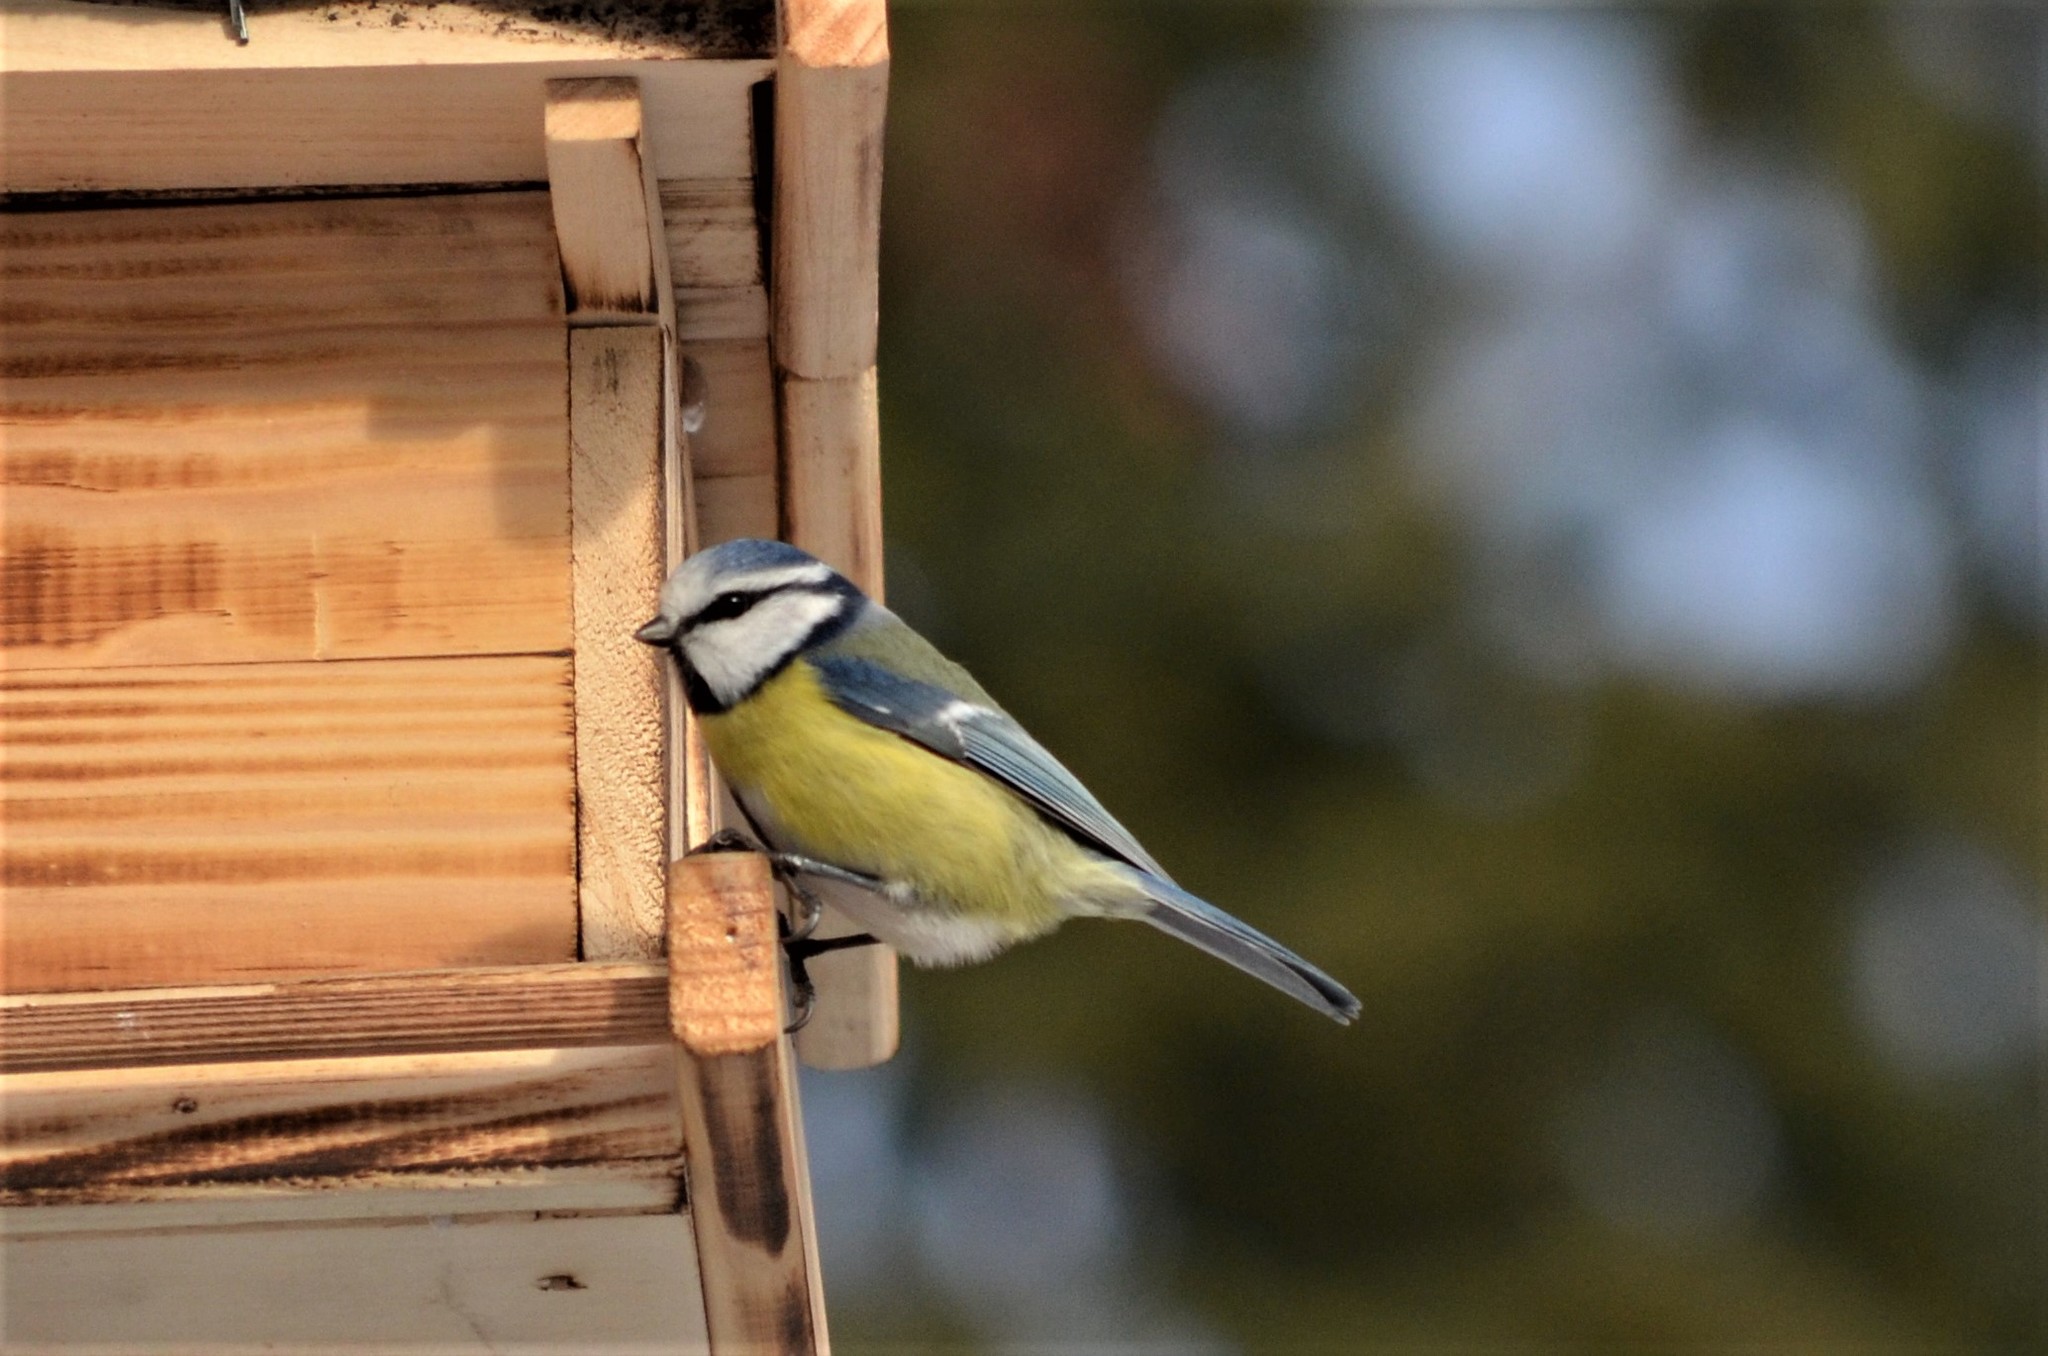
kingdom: Animalia
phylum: Chordata
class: Aves
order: Passeriformes
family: Paridae
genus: Cyanistes
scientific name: Cyanistes caeruleus
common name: Eurasian blue tit
